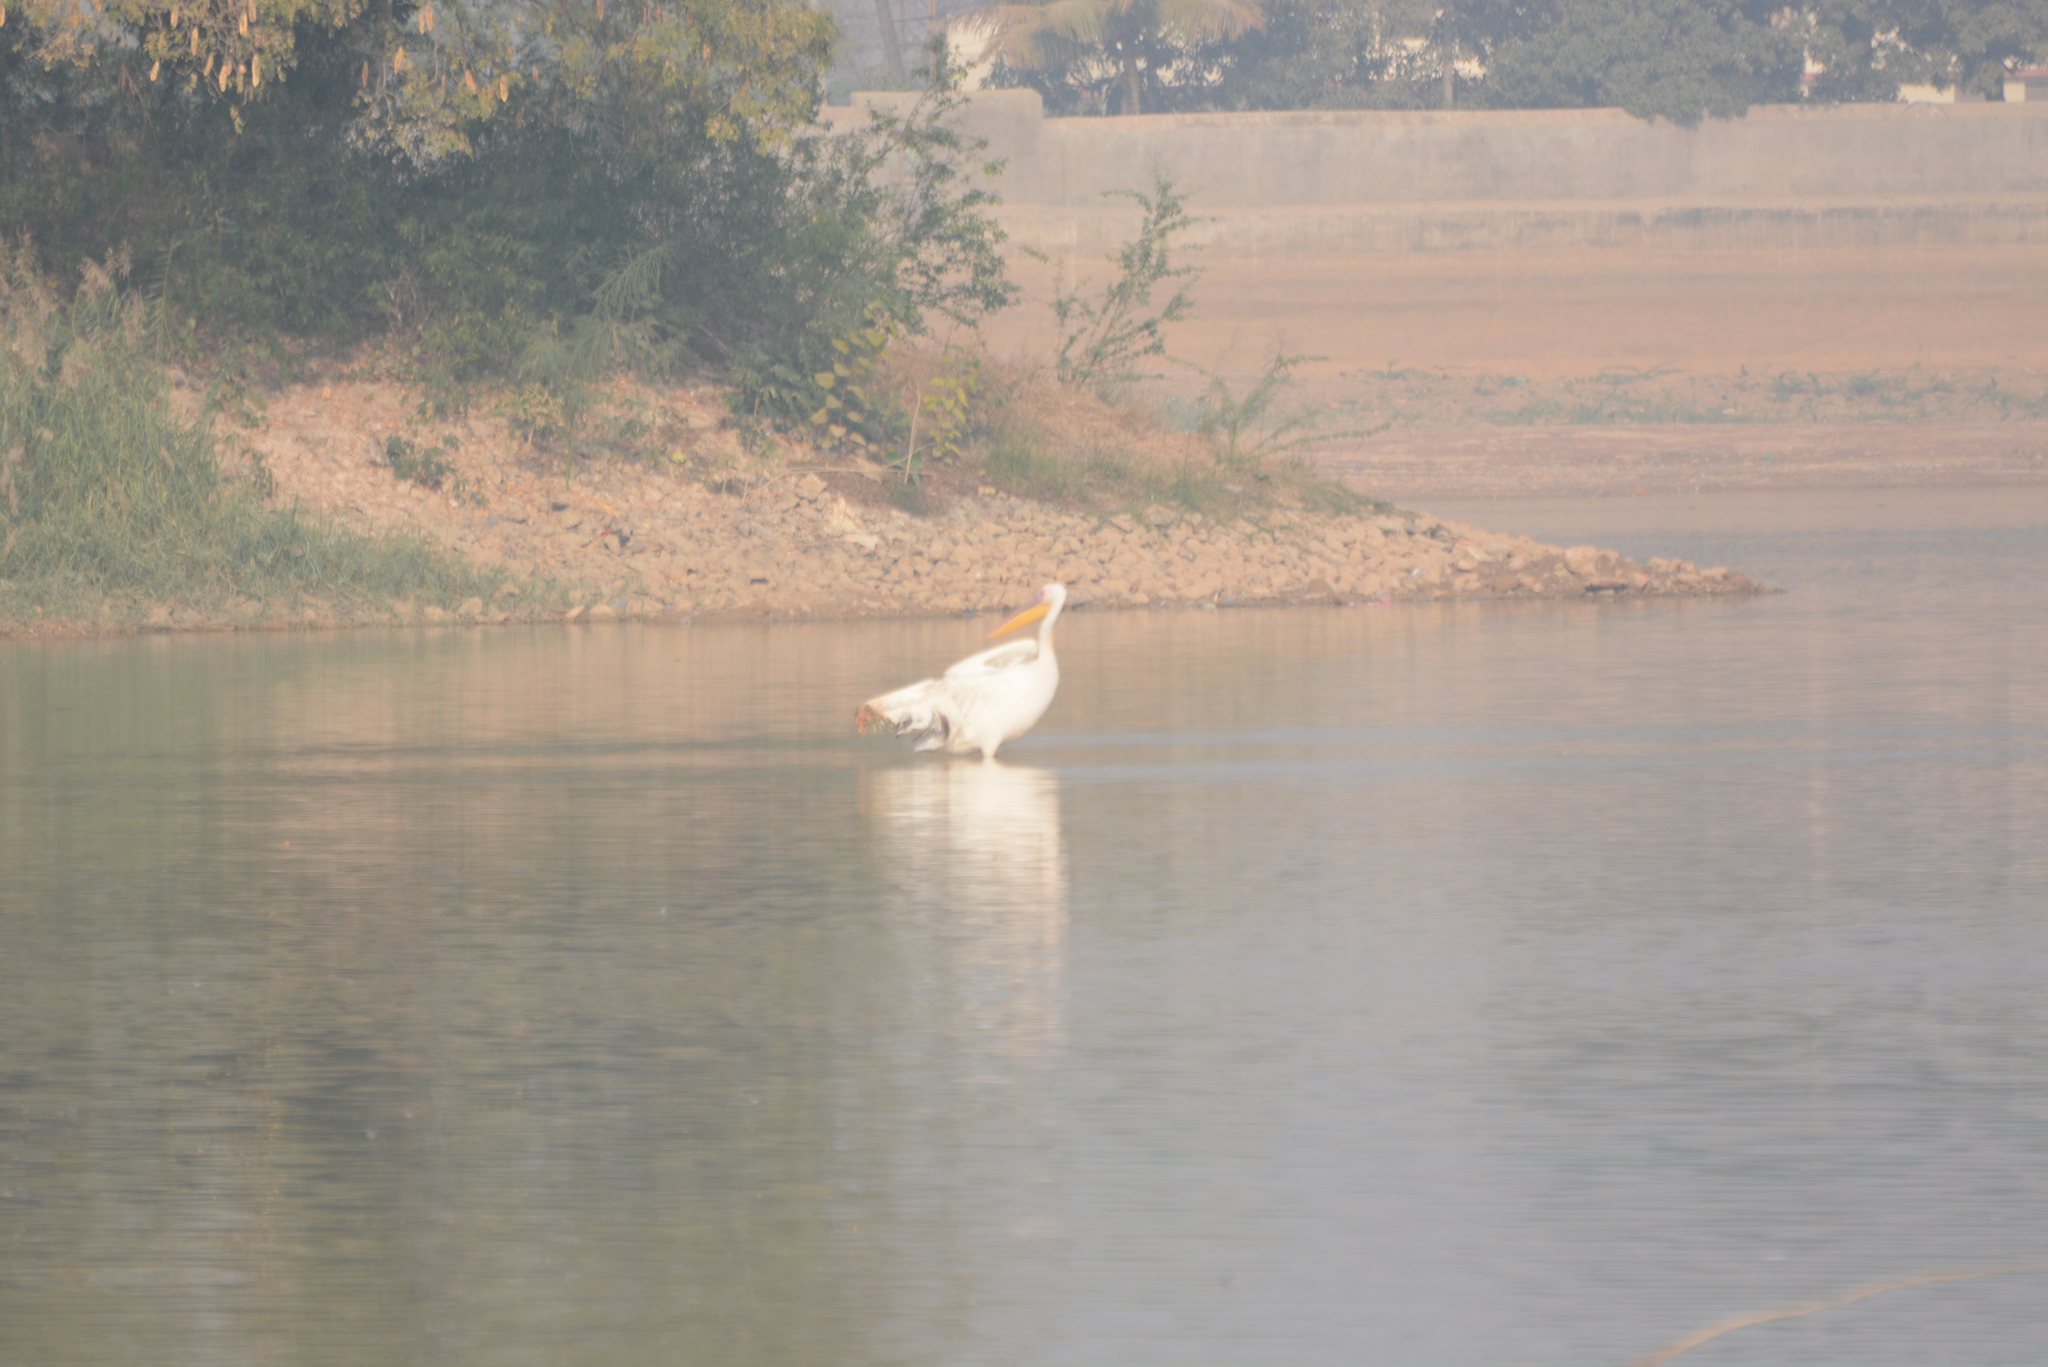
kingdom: Animalia
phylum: Chordata
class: Aves
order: Pelecaniformes
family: Pelecanidae
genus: Pelecanus
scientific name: Pelecanus onocrotalus
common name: Great white pelican
